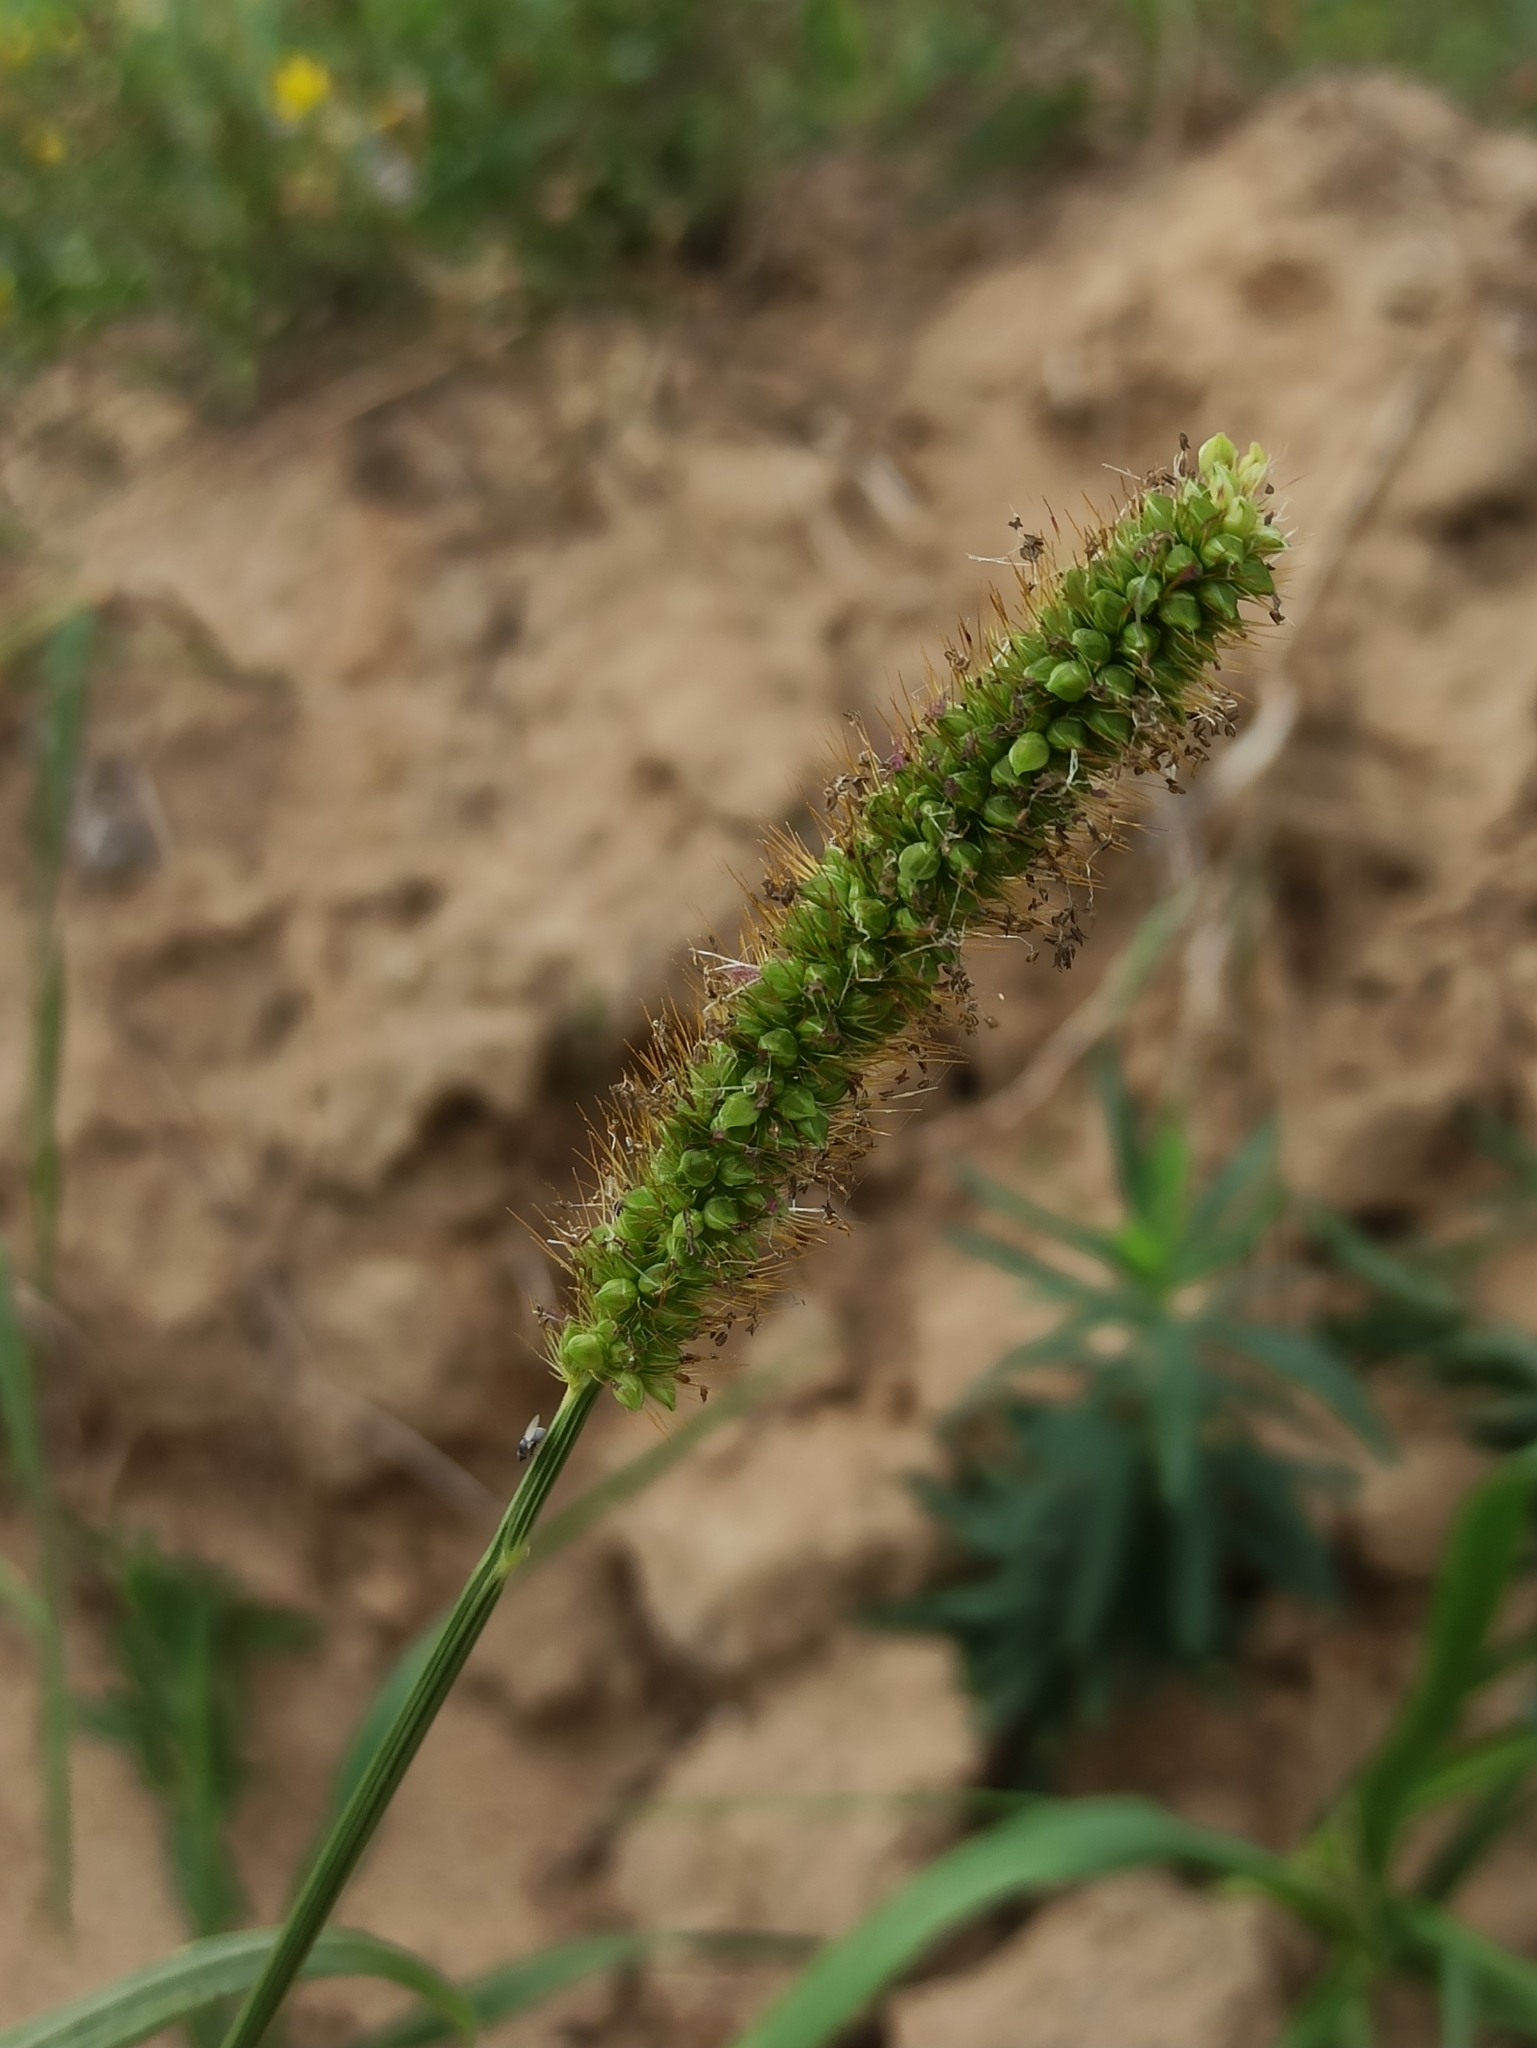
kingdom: Plantae
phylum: Tracheophyta
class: Liliopsida
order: Poales
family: Poaceae
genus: Setaria
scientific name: Setaria pumila
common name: Yellow bristle-grass
